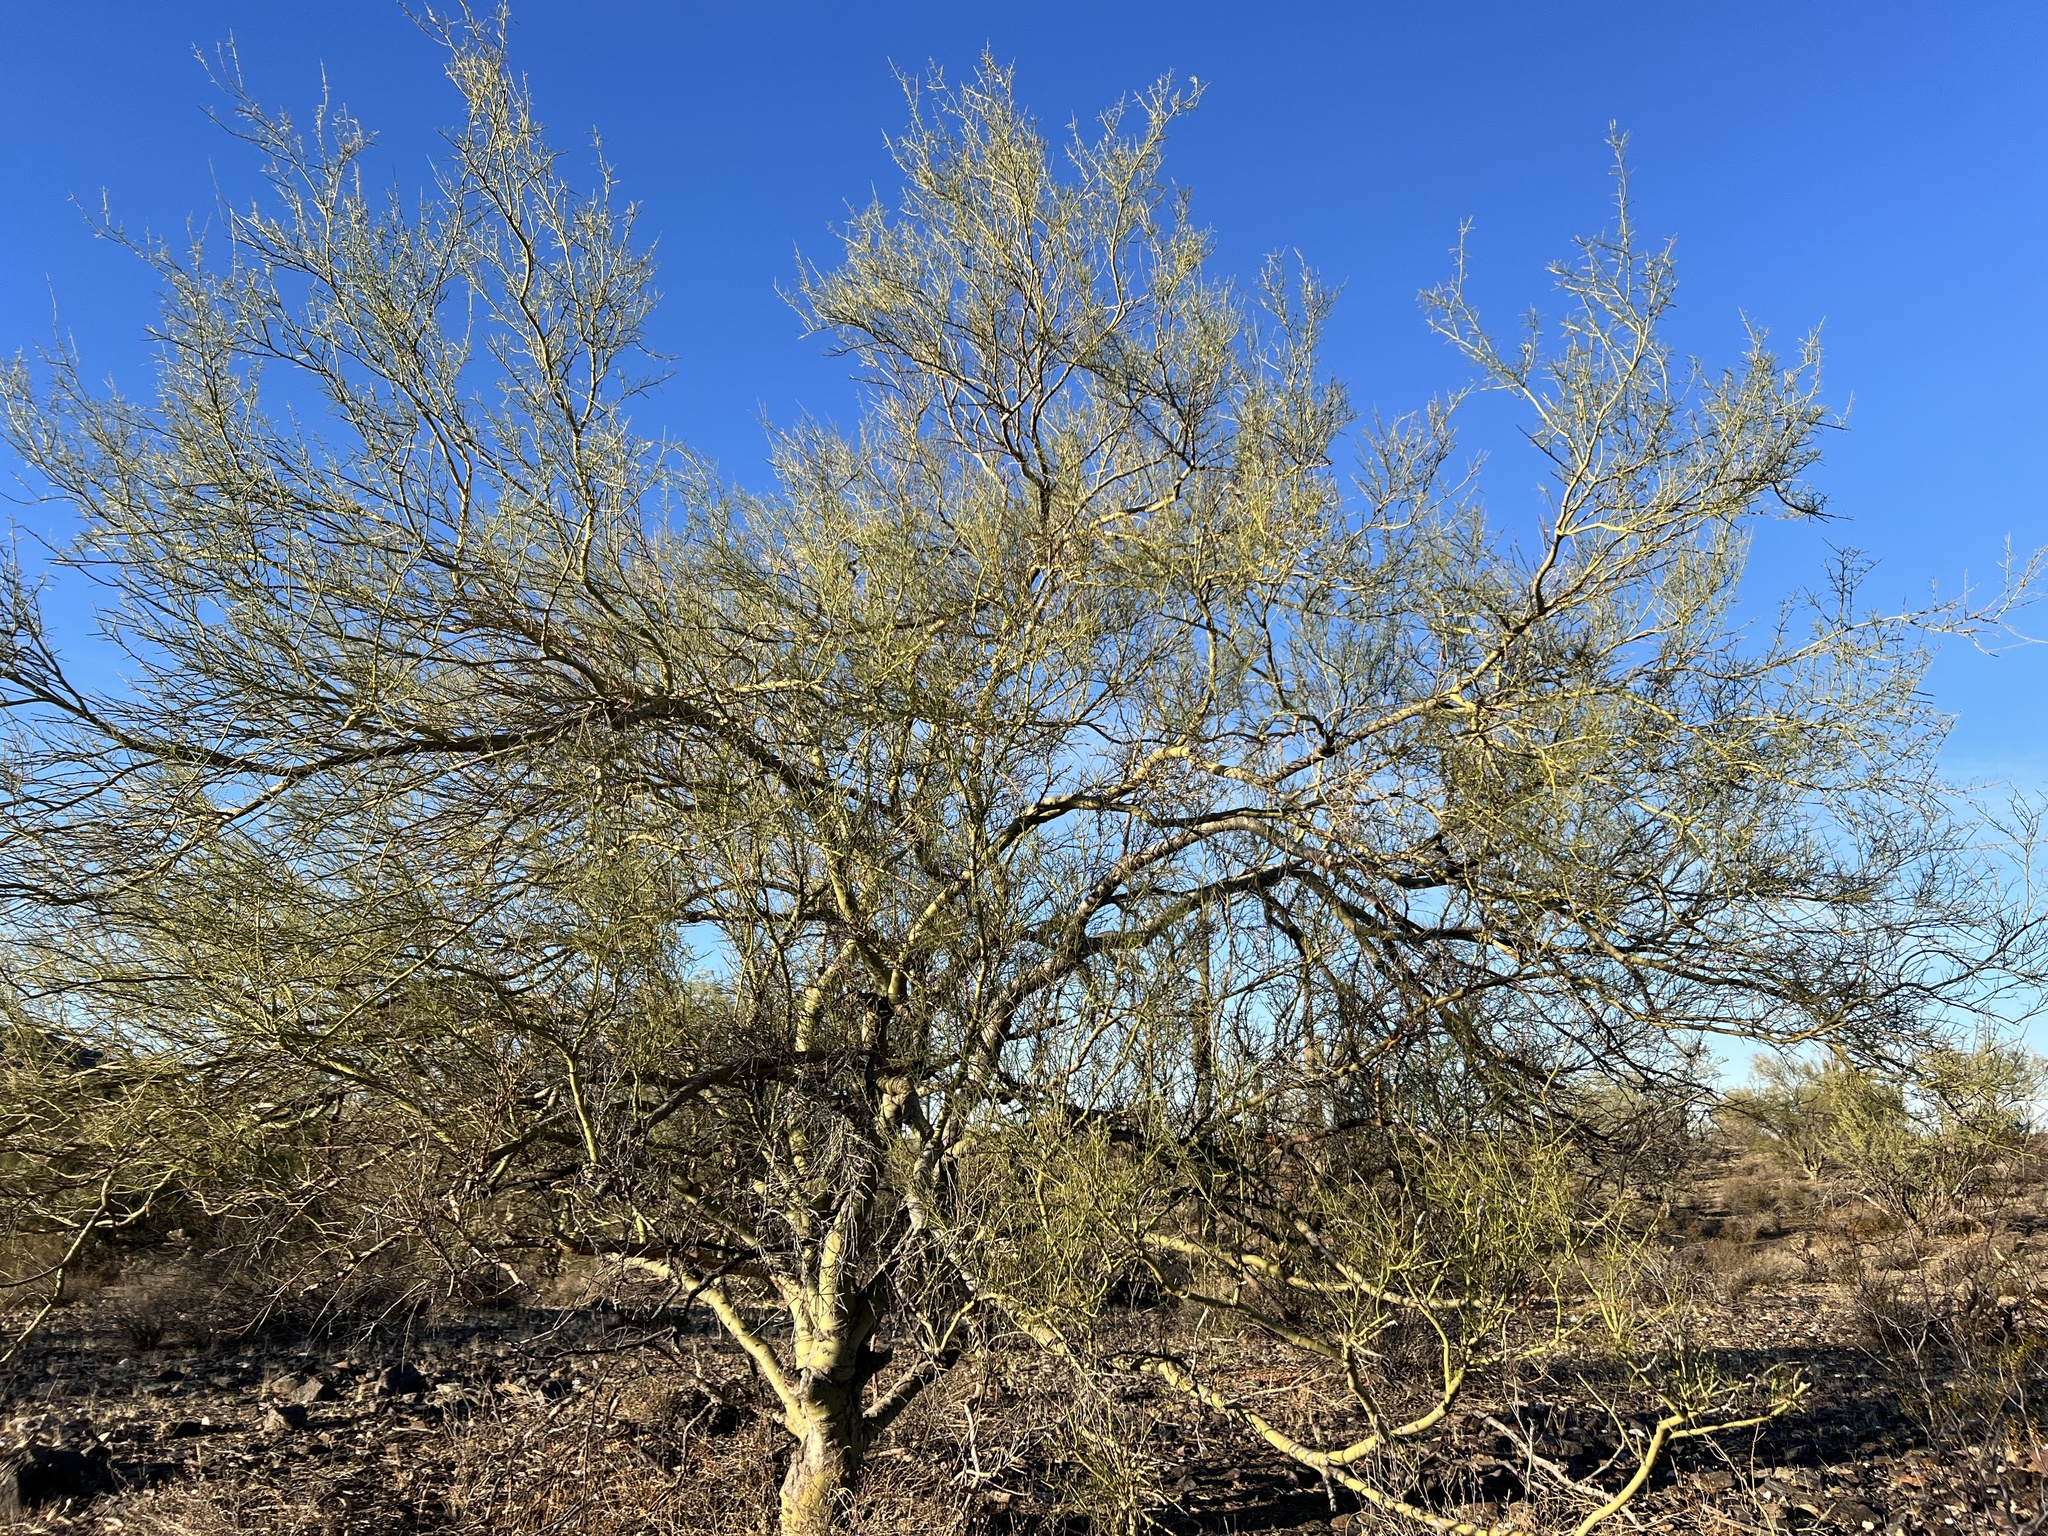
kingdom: Plantae
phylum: Tracheophyta
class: Magnoliopsida
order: Fabales
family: Fabaceae
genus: Parkinsonia
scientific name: Parkinsonia microphylla
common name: Yellow paloverde
